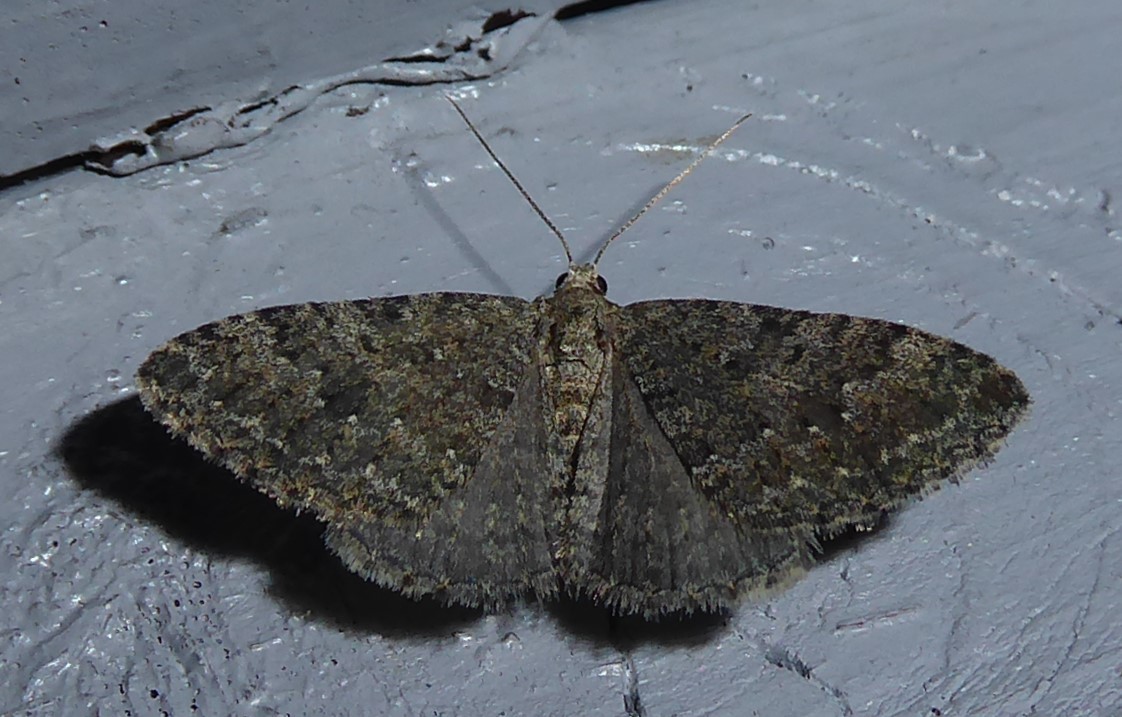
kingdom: Animalia
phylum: Arthropoda
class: Insecta
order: Lepidoptera
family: Geometridae
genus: Helastia
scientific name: Helastia corcularia
